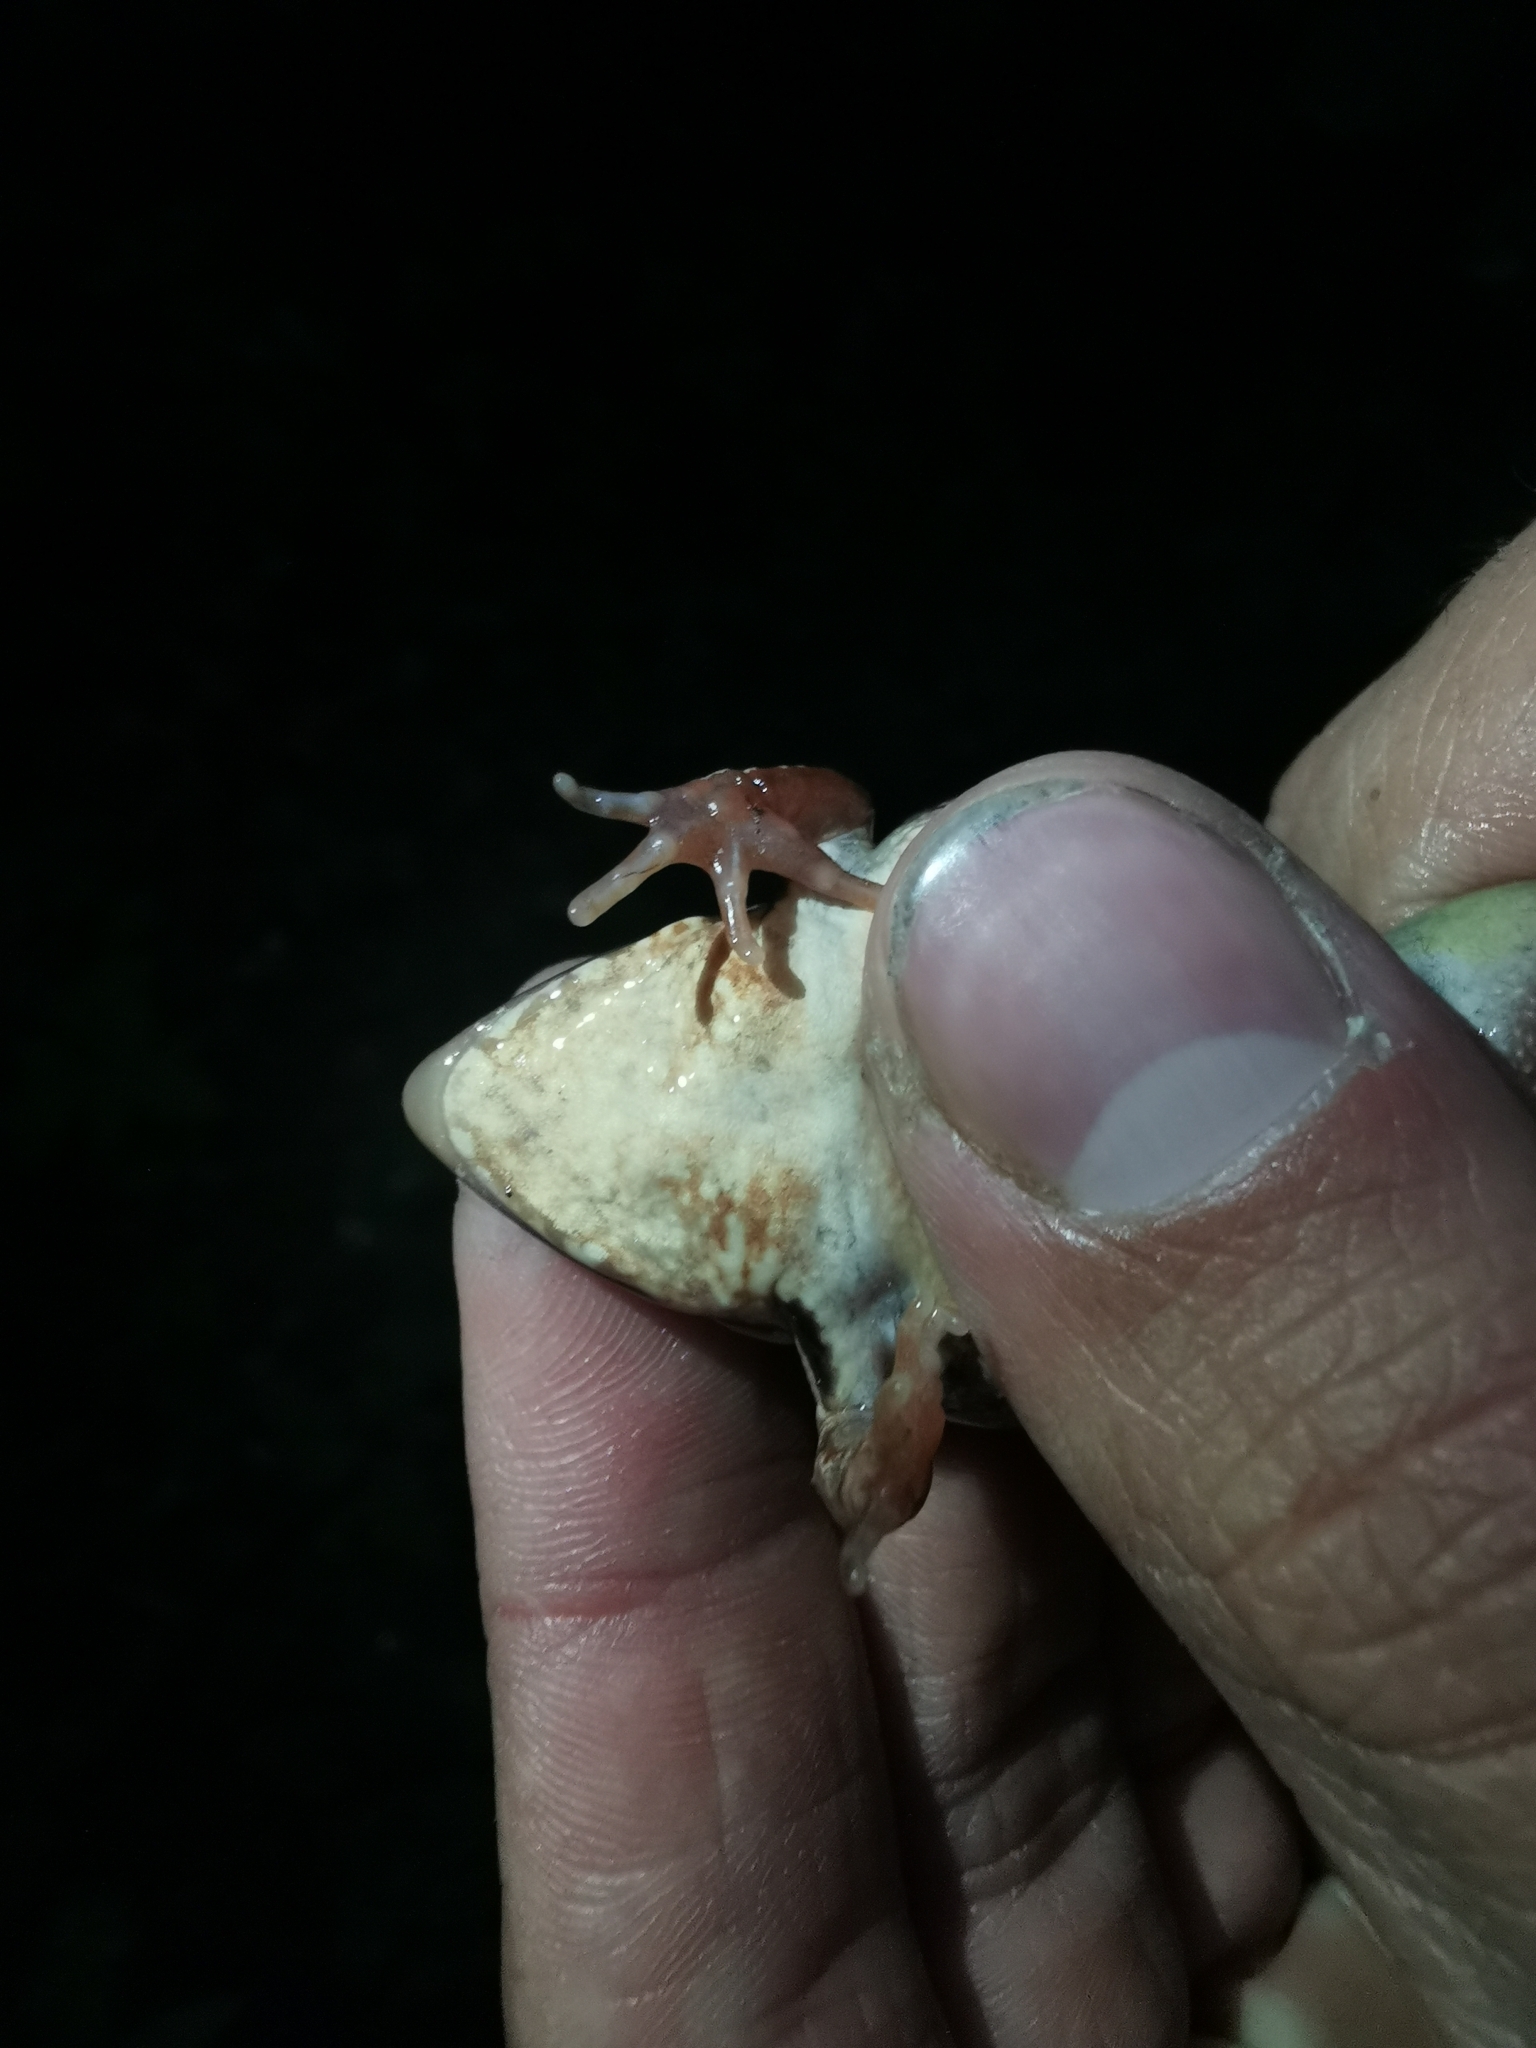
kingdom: Animalia
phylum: Chordata
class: Amphibia
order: Anura
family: Ranidae
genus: Rana
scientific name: Rana arvalis
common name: Moor frog
